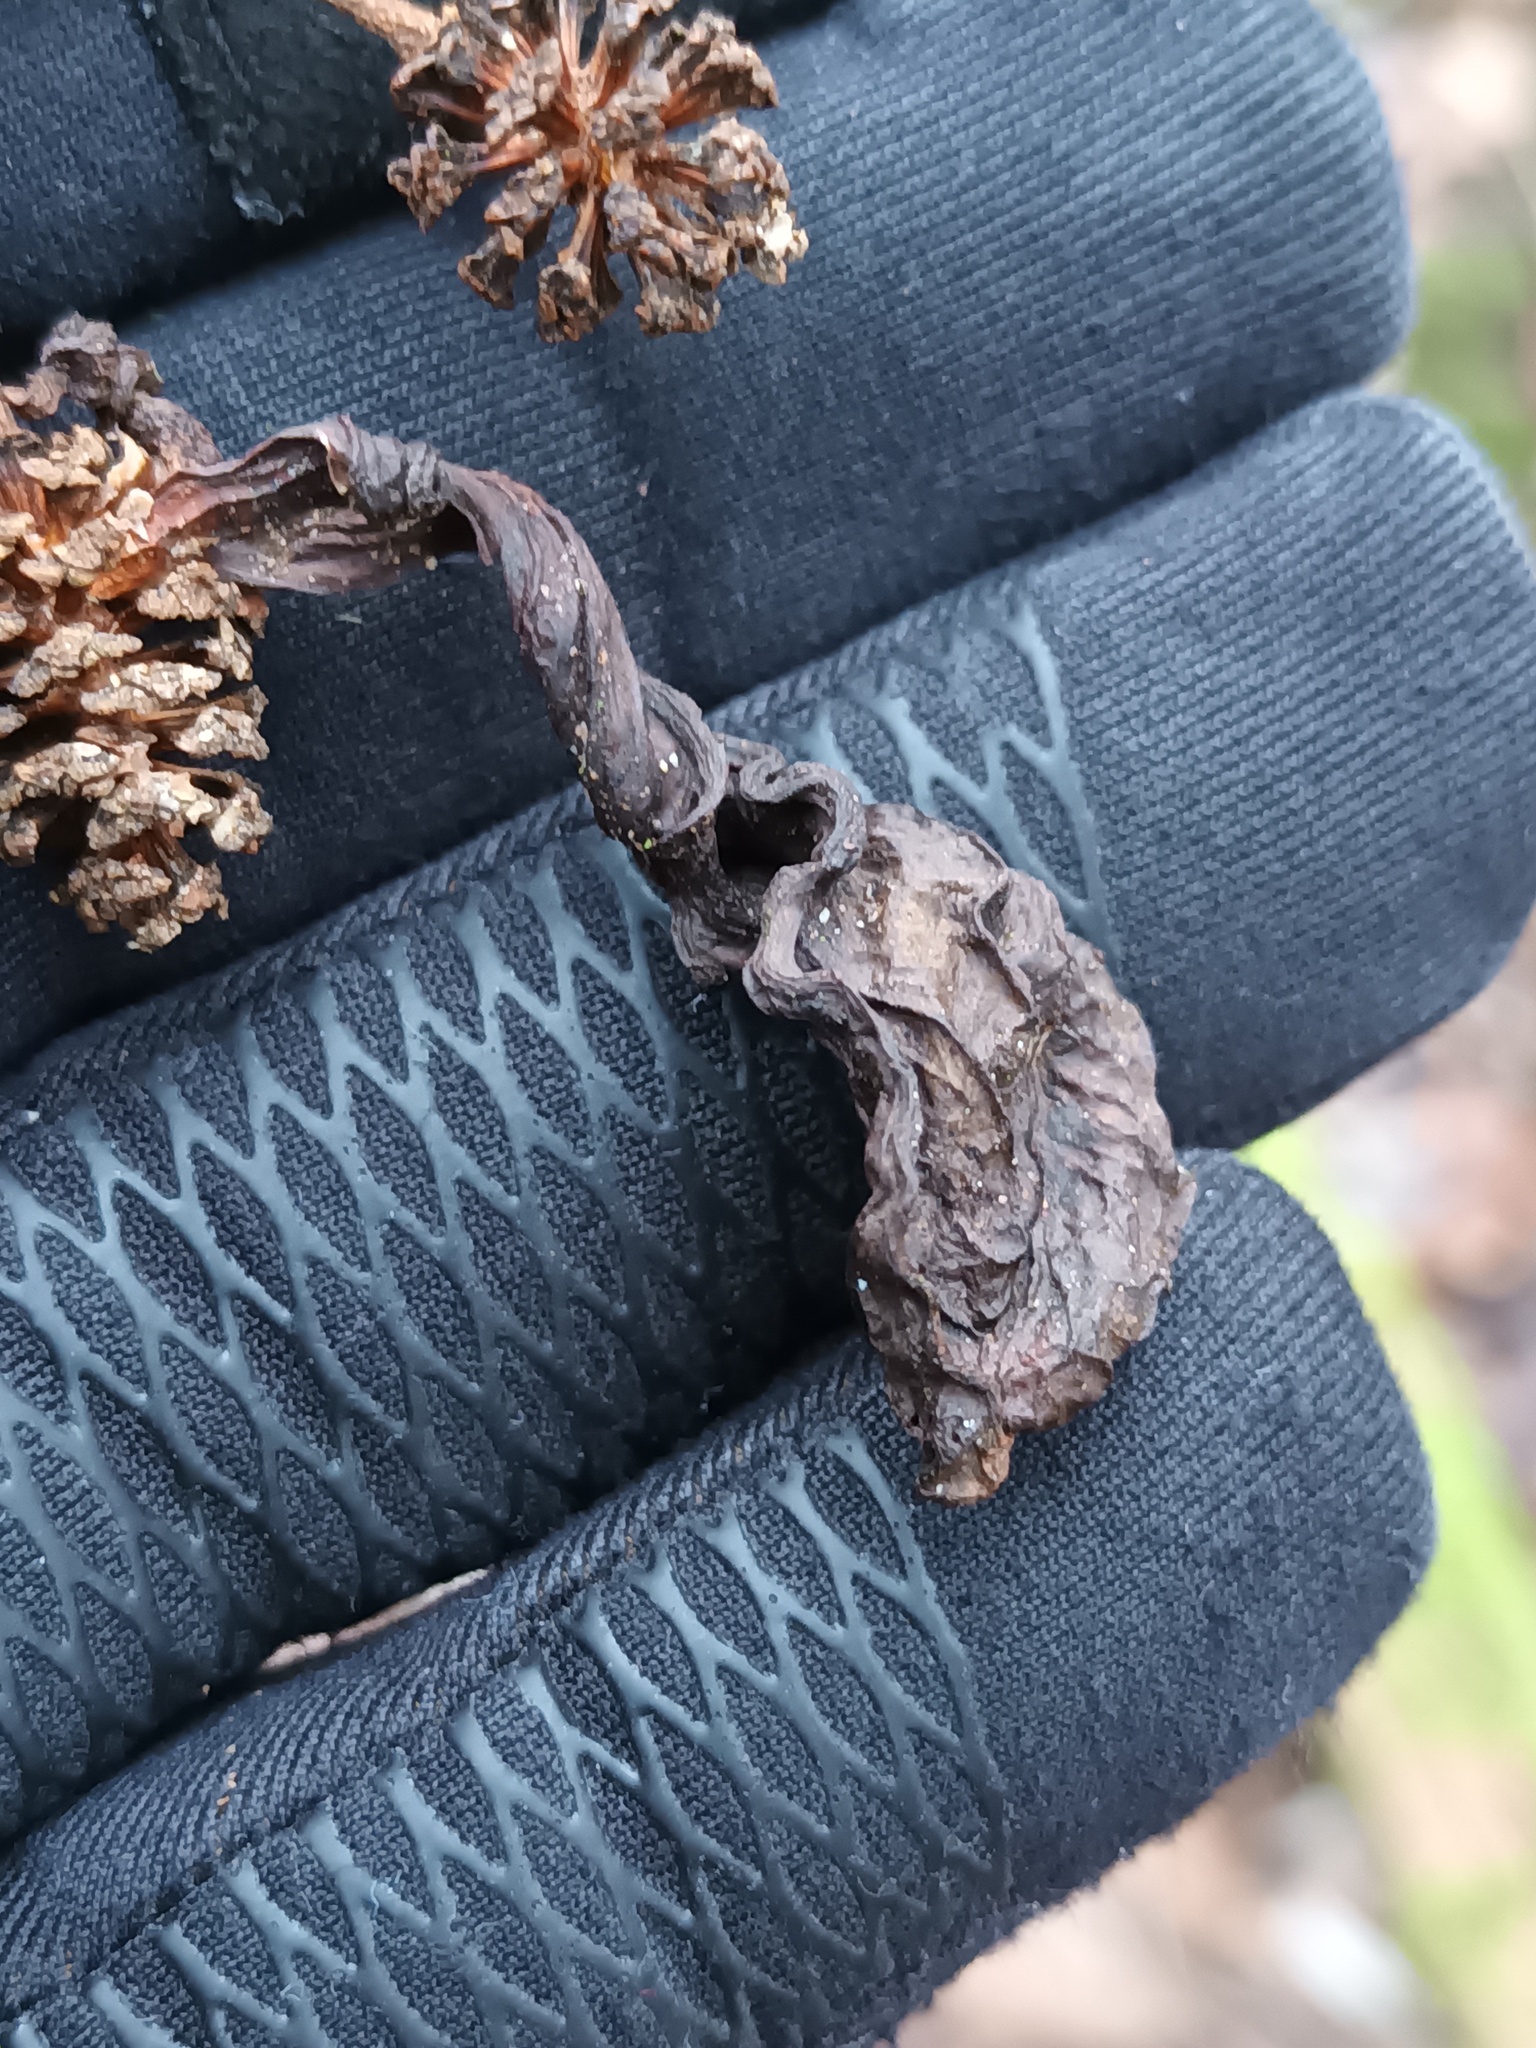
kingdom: Fungi
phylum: Ascomycota
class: Taphrinomycetes
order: Taphrinales
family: Taphrinaceae
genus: Taphrina
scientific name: Taphrina alni
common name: Alder tongue
